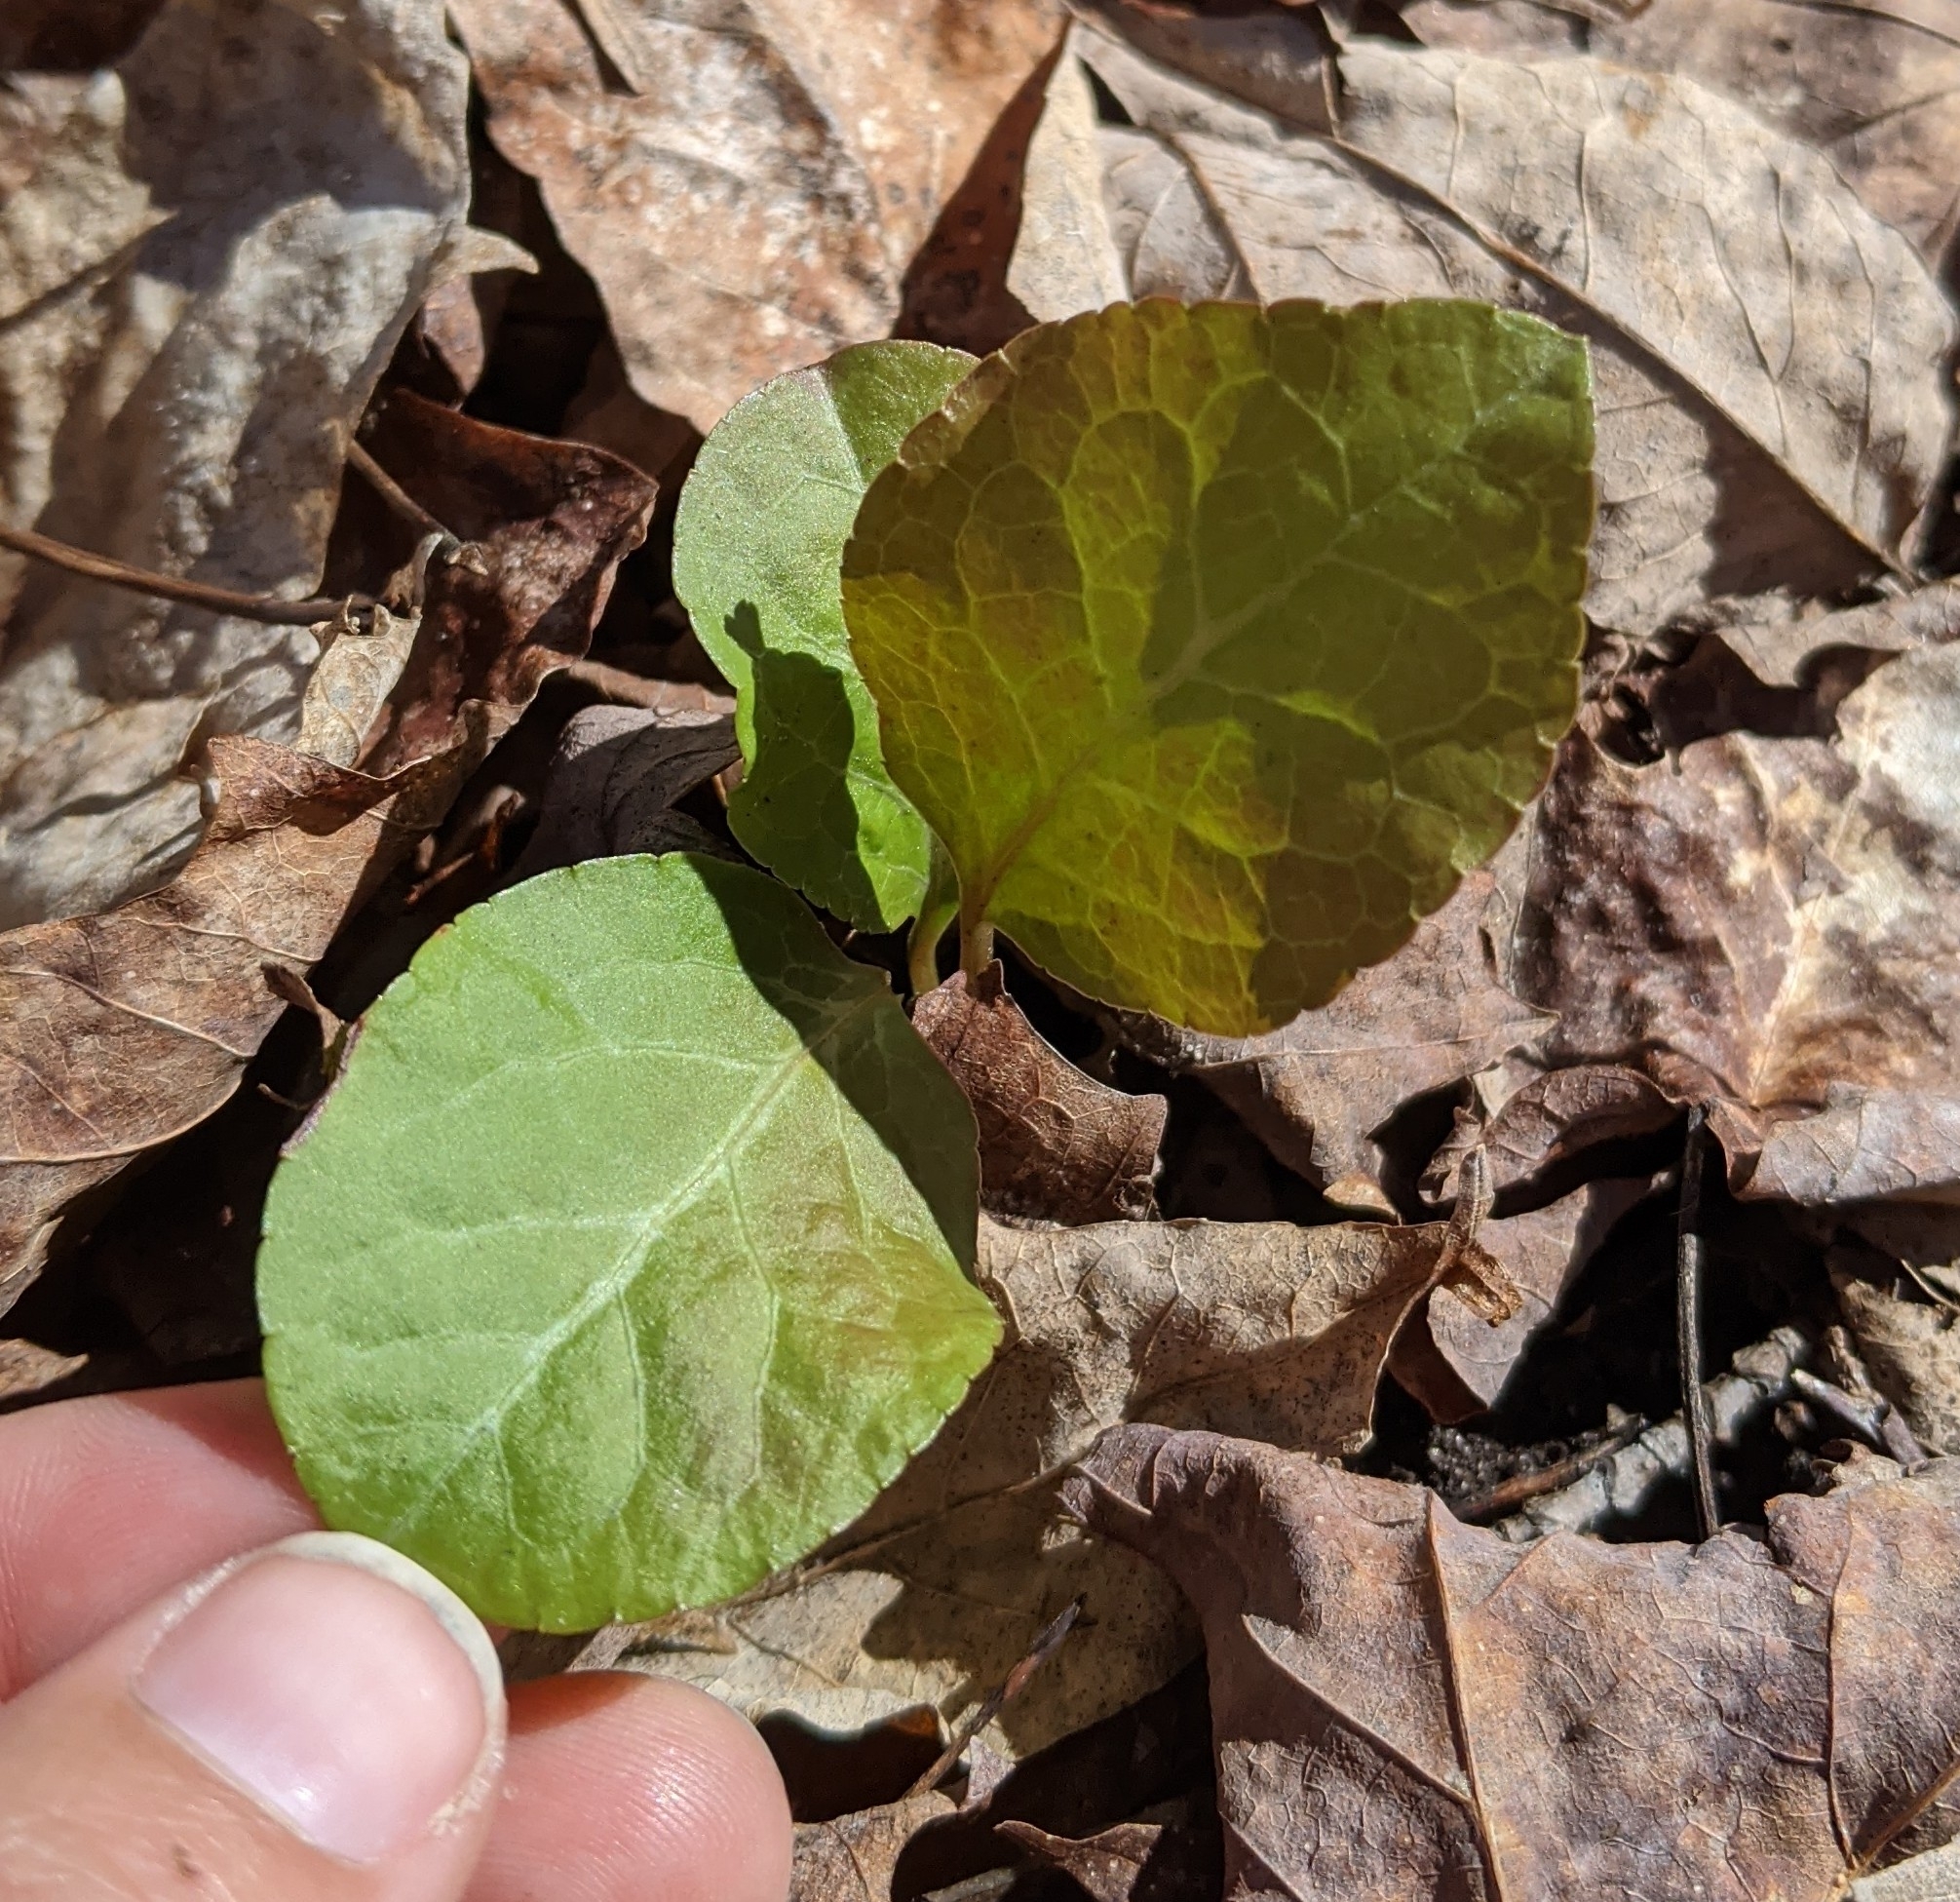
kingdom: Plantae
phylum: Tracheophyta
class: Magnoliopsida
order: Ericales
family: Ericaceae
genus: Pyrola
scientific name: Pyrola elliptica
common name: Shinleaf
